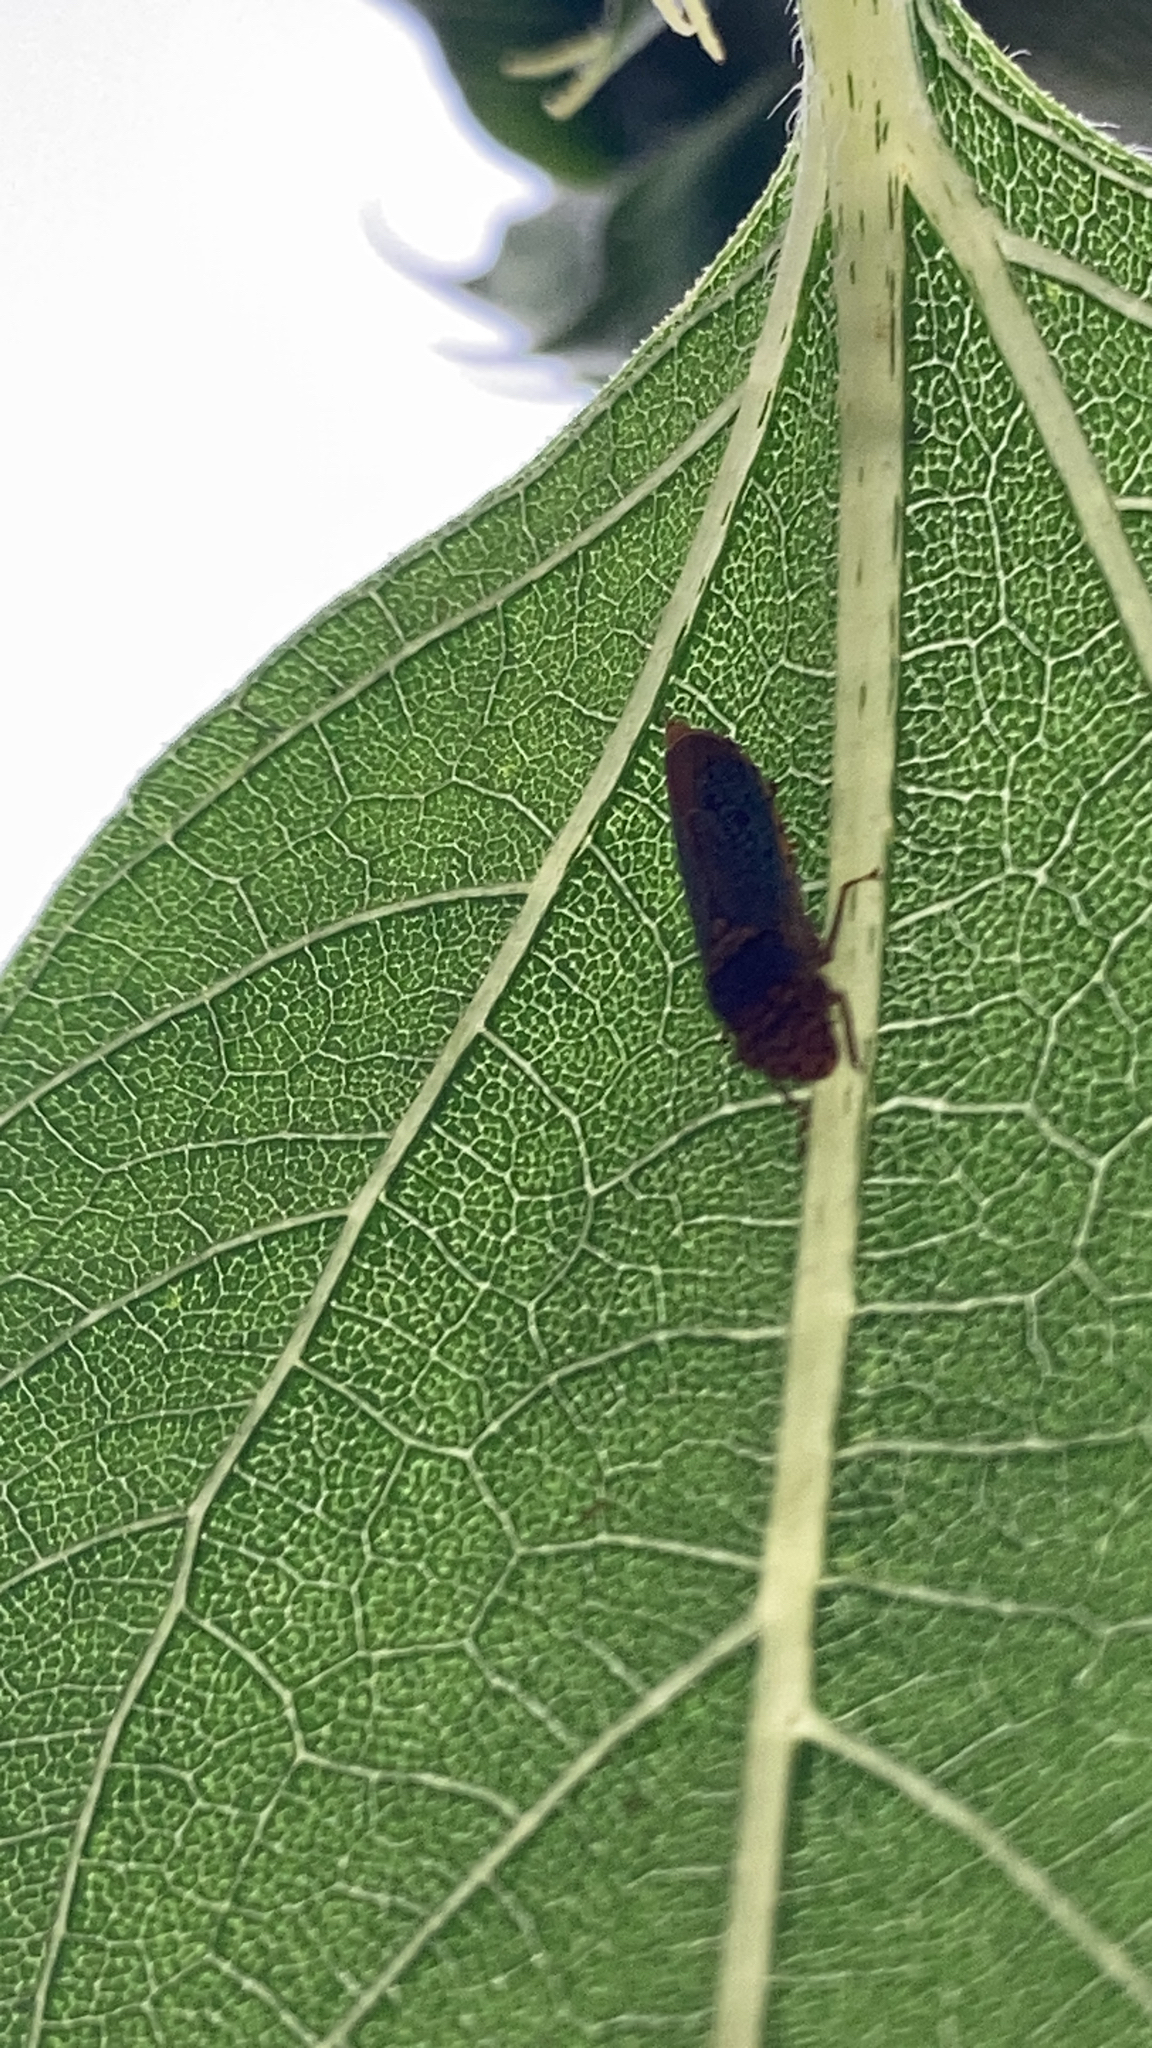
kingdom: Animalia
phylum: Arthropoda
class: Insecta
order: Hemiptera
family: Cicadellidae
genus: Oncometopia
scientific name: Oncometopia orbona
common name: Broad-headed sharpshooter
